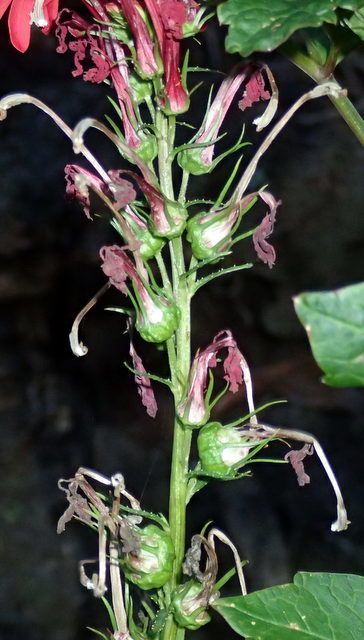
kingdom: Plantae
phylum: Tracheophyta
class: Magnoliopsida
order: Asterales
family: Campanulaceae
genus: Lobelia
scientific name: Lobelia cardinalis
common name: Cardinal flower
